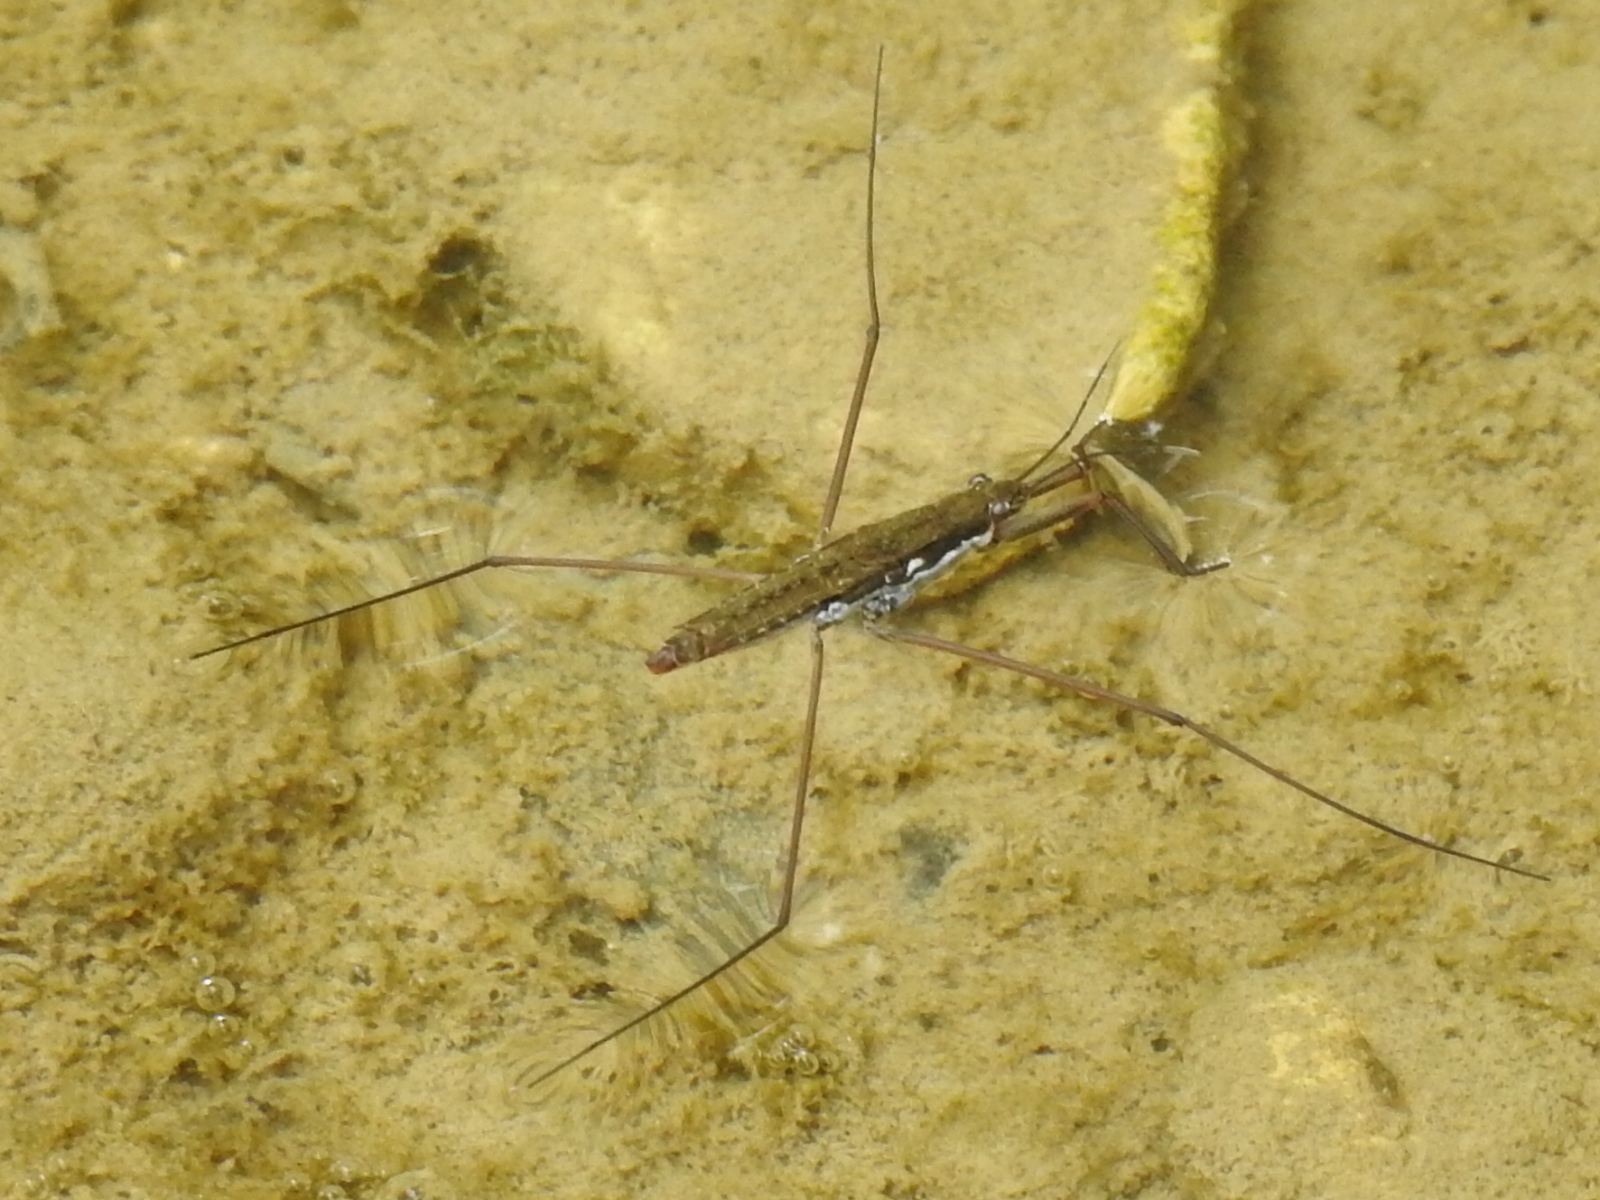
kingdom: Animalia
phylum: Arthropoda
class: Insecta
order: Hemiptera
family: Gerridae
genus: Aquarius
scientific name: Aquarius remigis
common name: Common water strider
